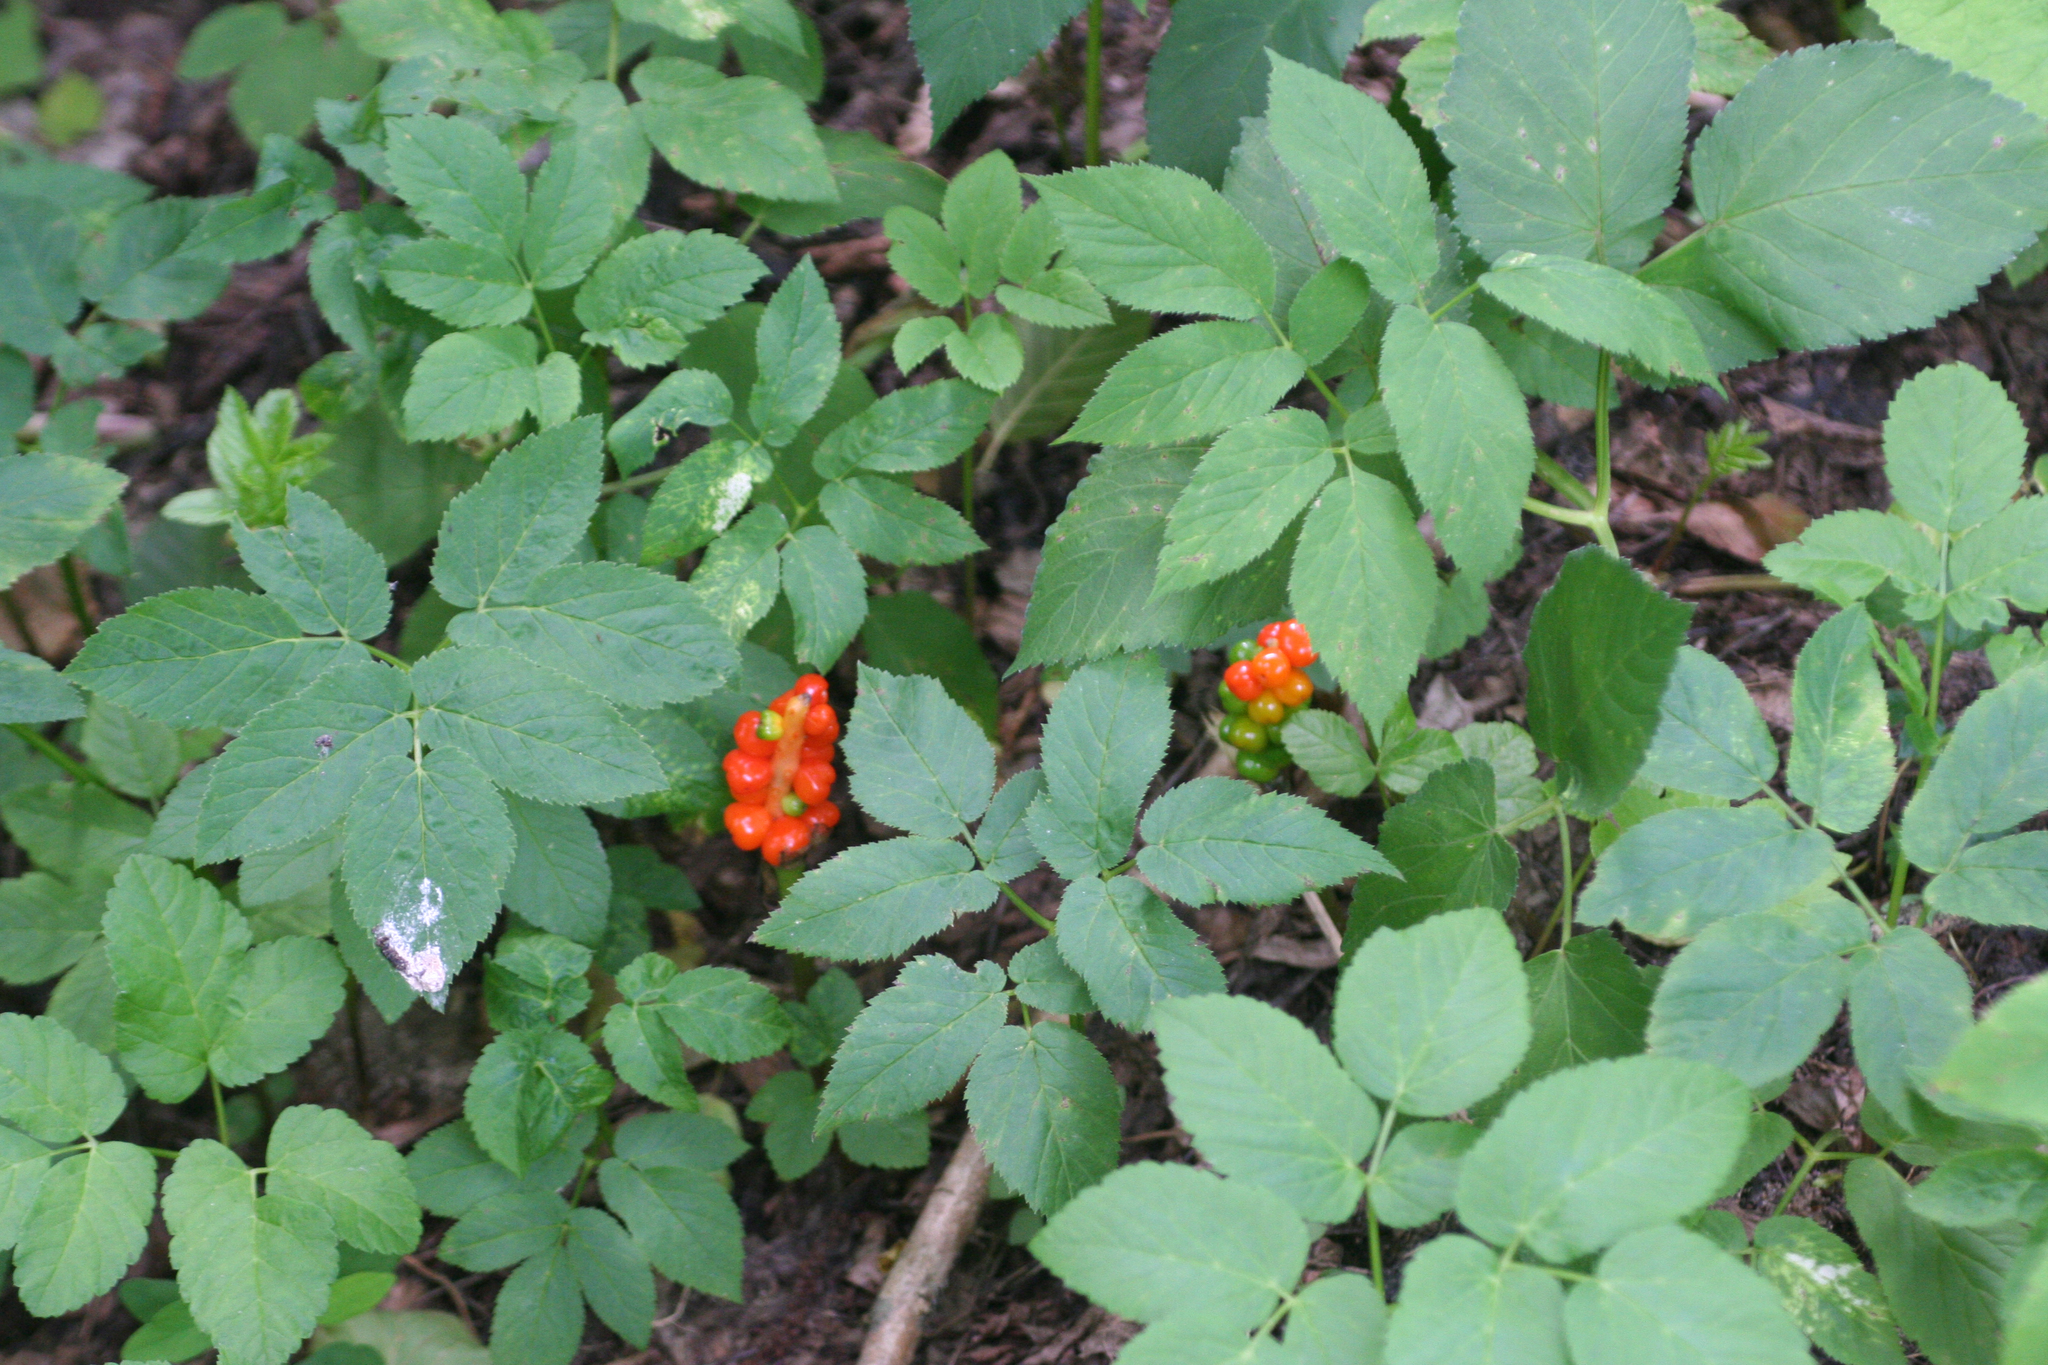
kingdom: Plantae
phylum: Tracheophyta
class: Liliopsida
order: Alismatales
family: Araceae
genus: Arum
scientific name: Arum maculatum
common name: Lords-and-ladies
